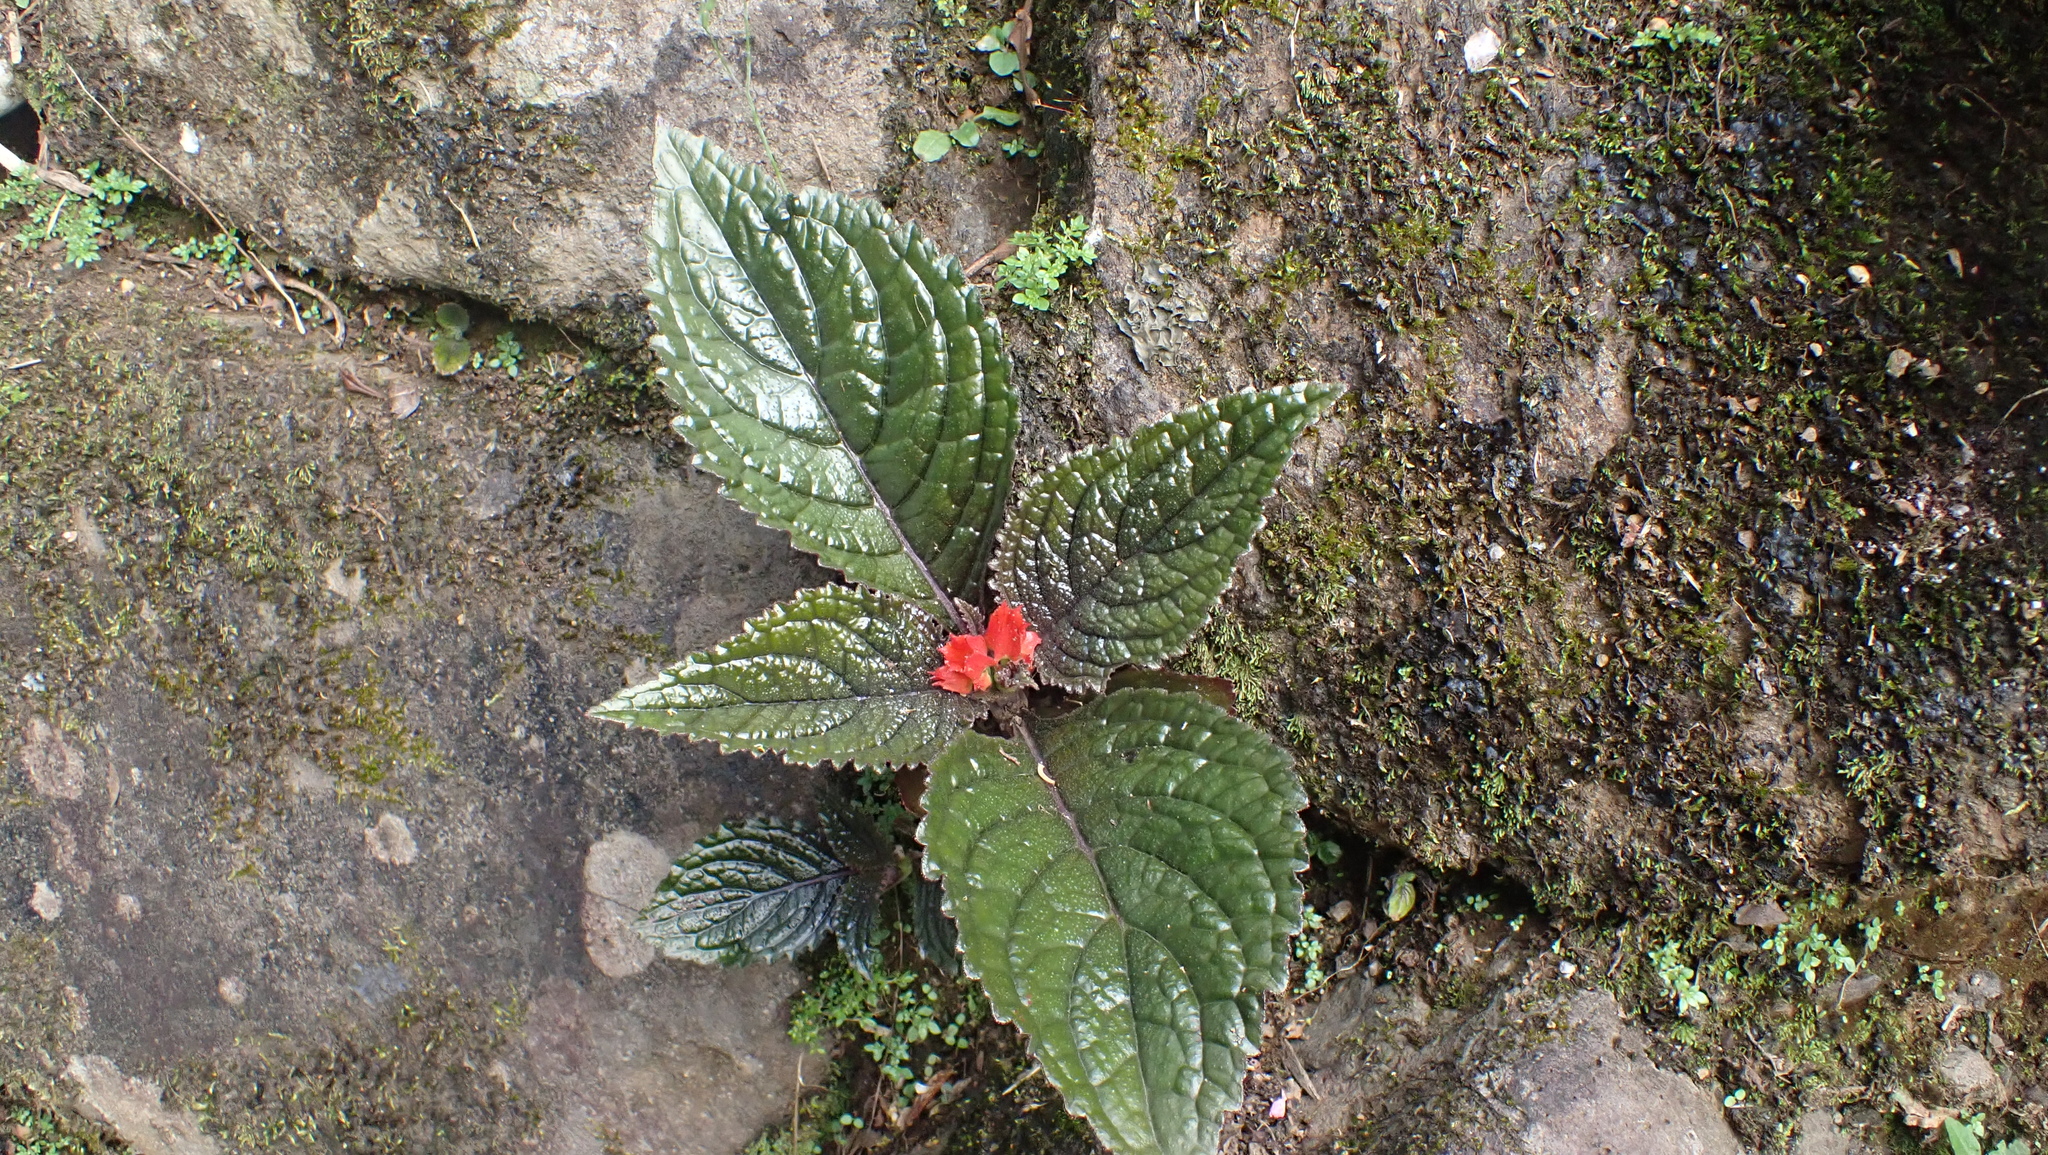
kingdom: Plantae
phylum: Tracheophyta
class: Magnoliopsida
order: Lamiales
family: Gesneriaceae
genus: Chrysothemis
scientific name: Chrysothemis pulchella
